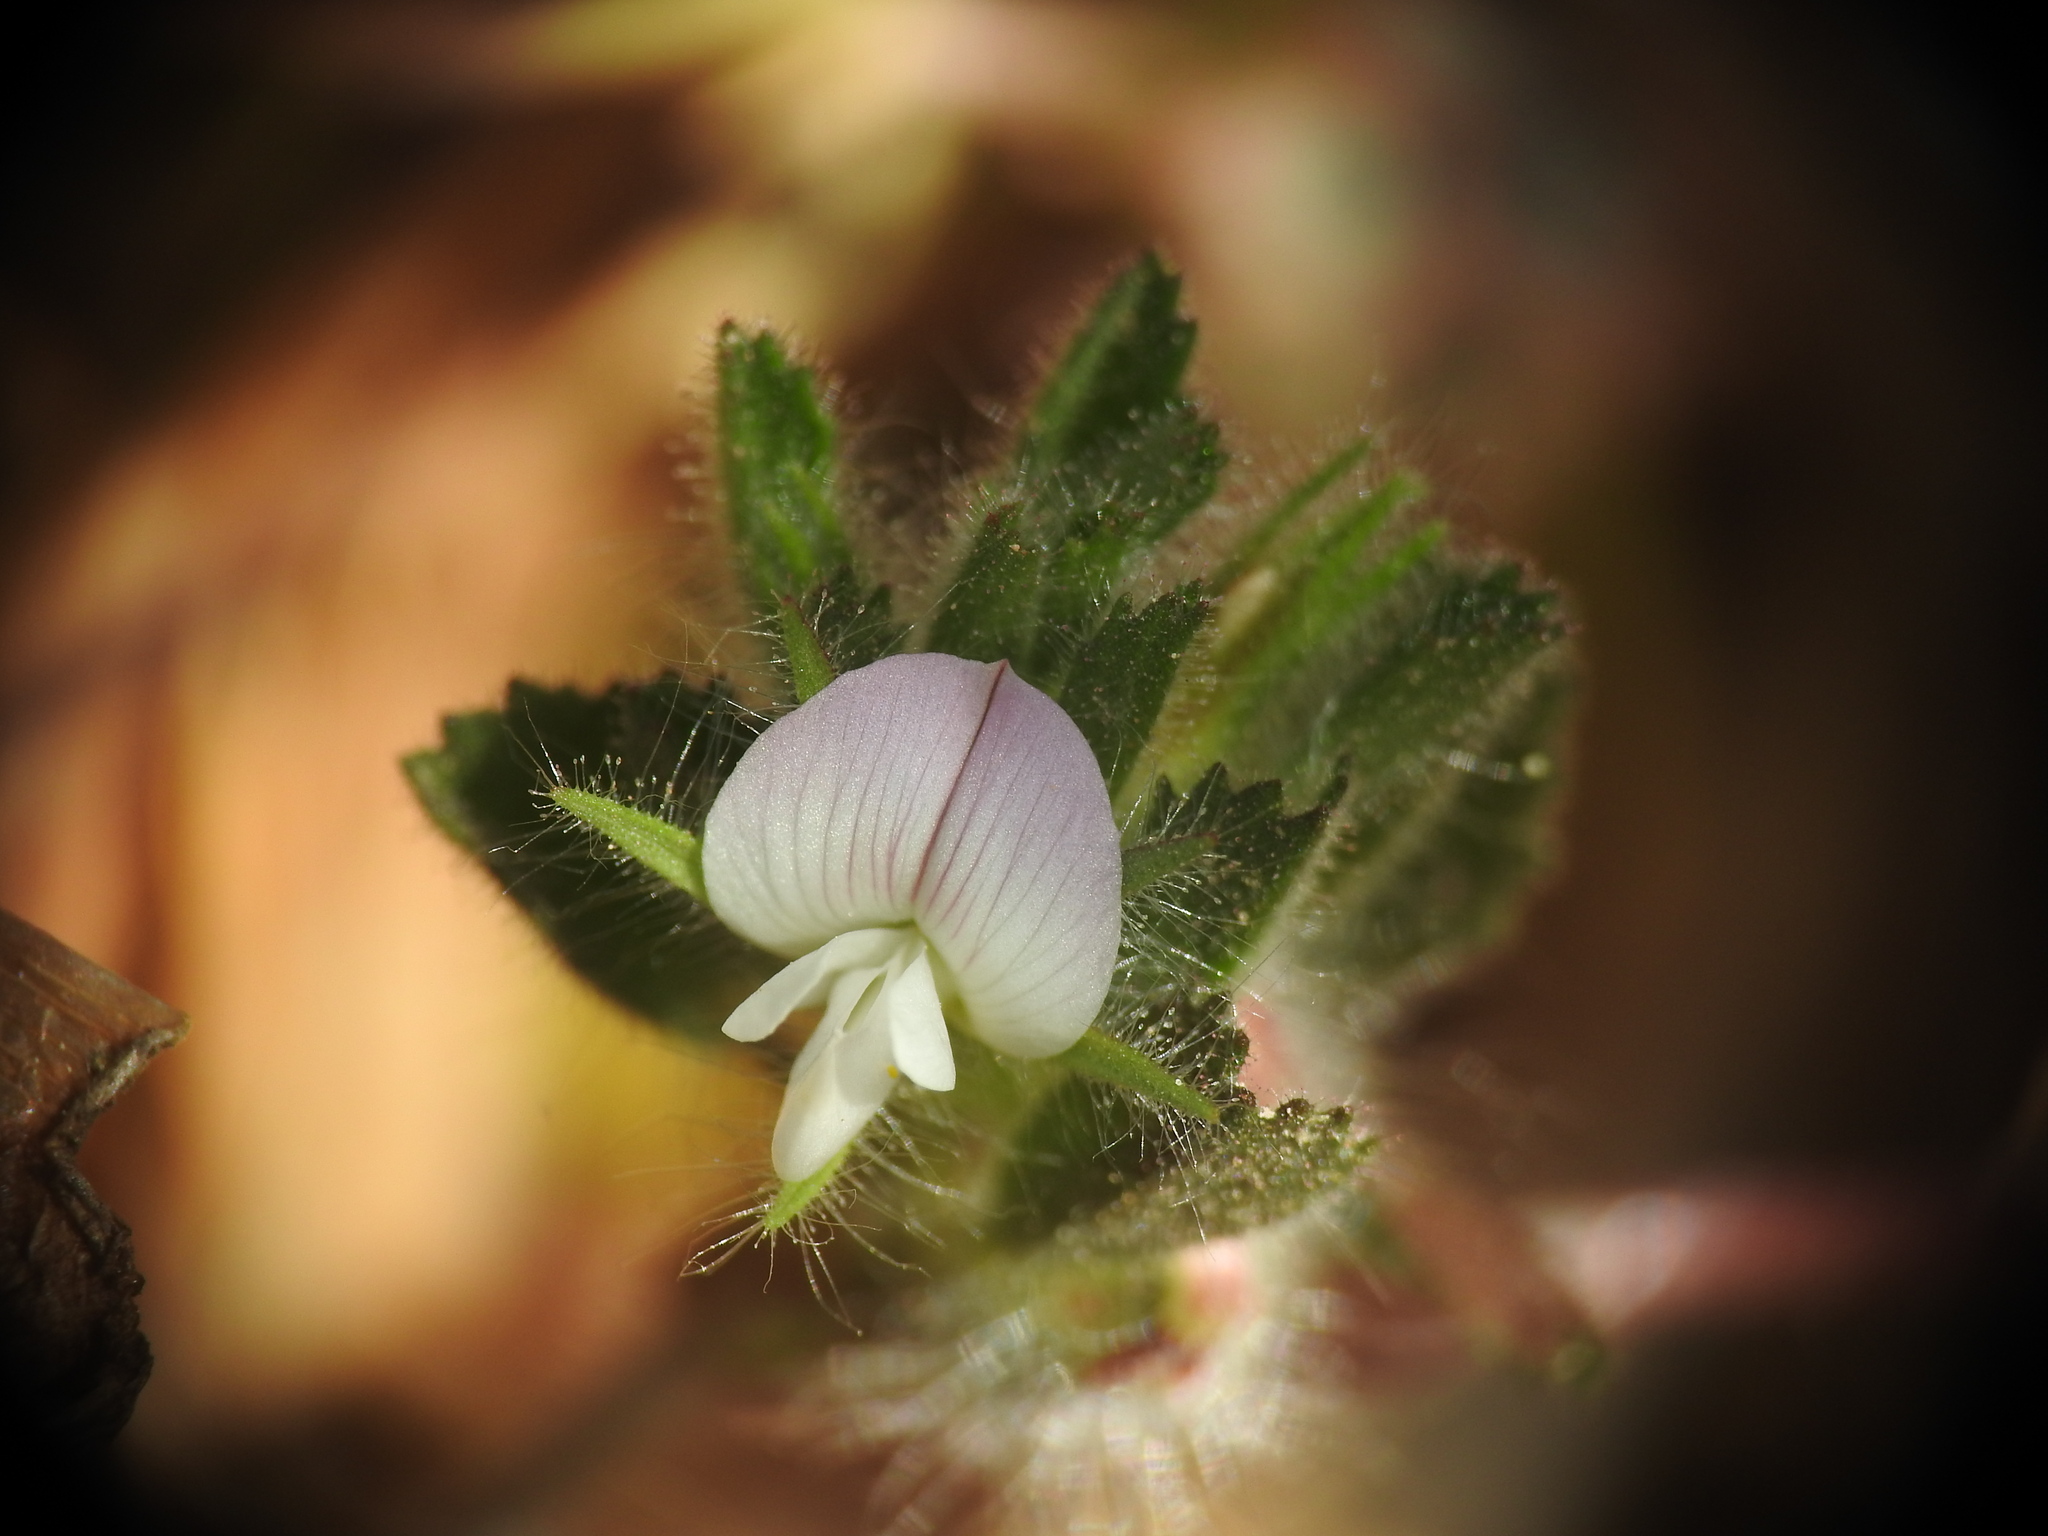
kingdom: Plantae
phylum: Tracheophyta
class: Magnoliopsida
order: Fabales
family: Fabaceae
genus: Ononis
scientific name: Ononis reclinata
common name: Small restharrow
